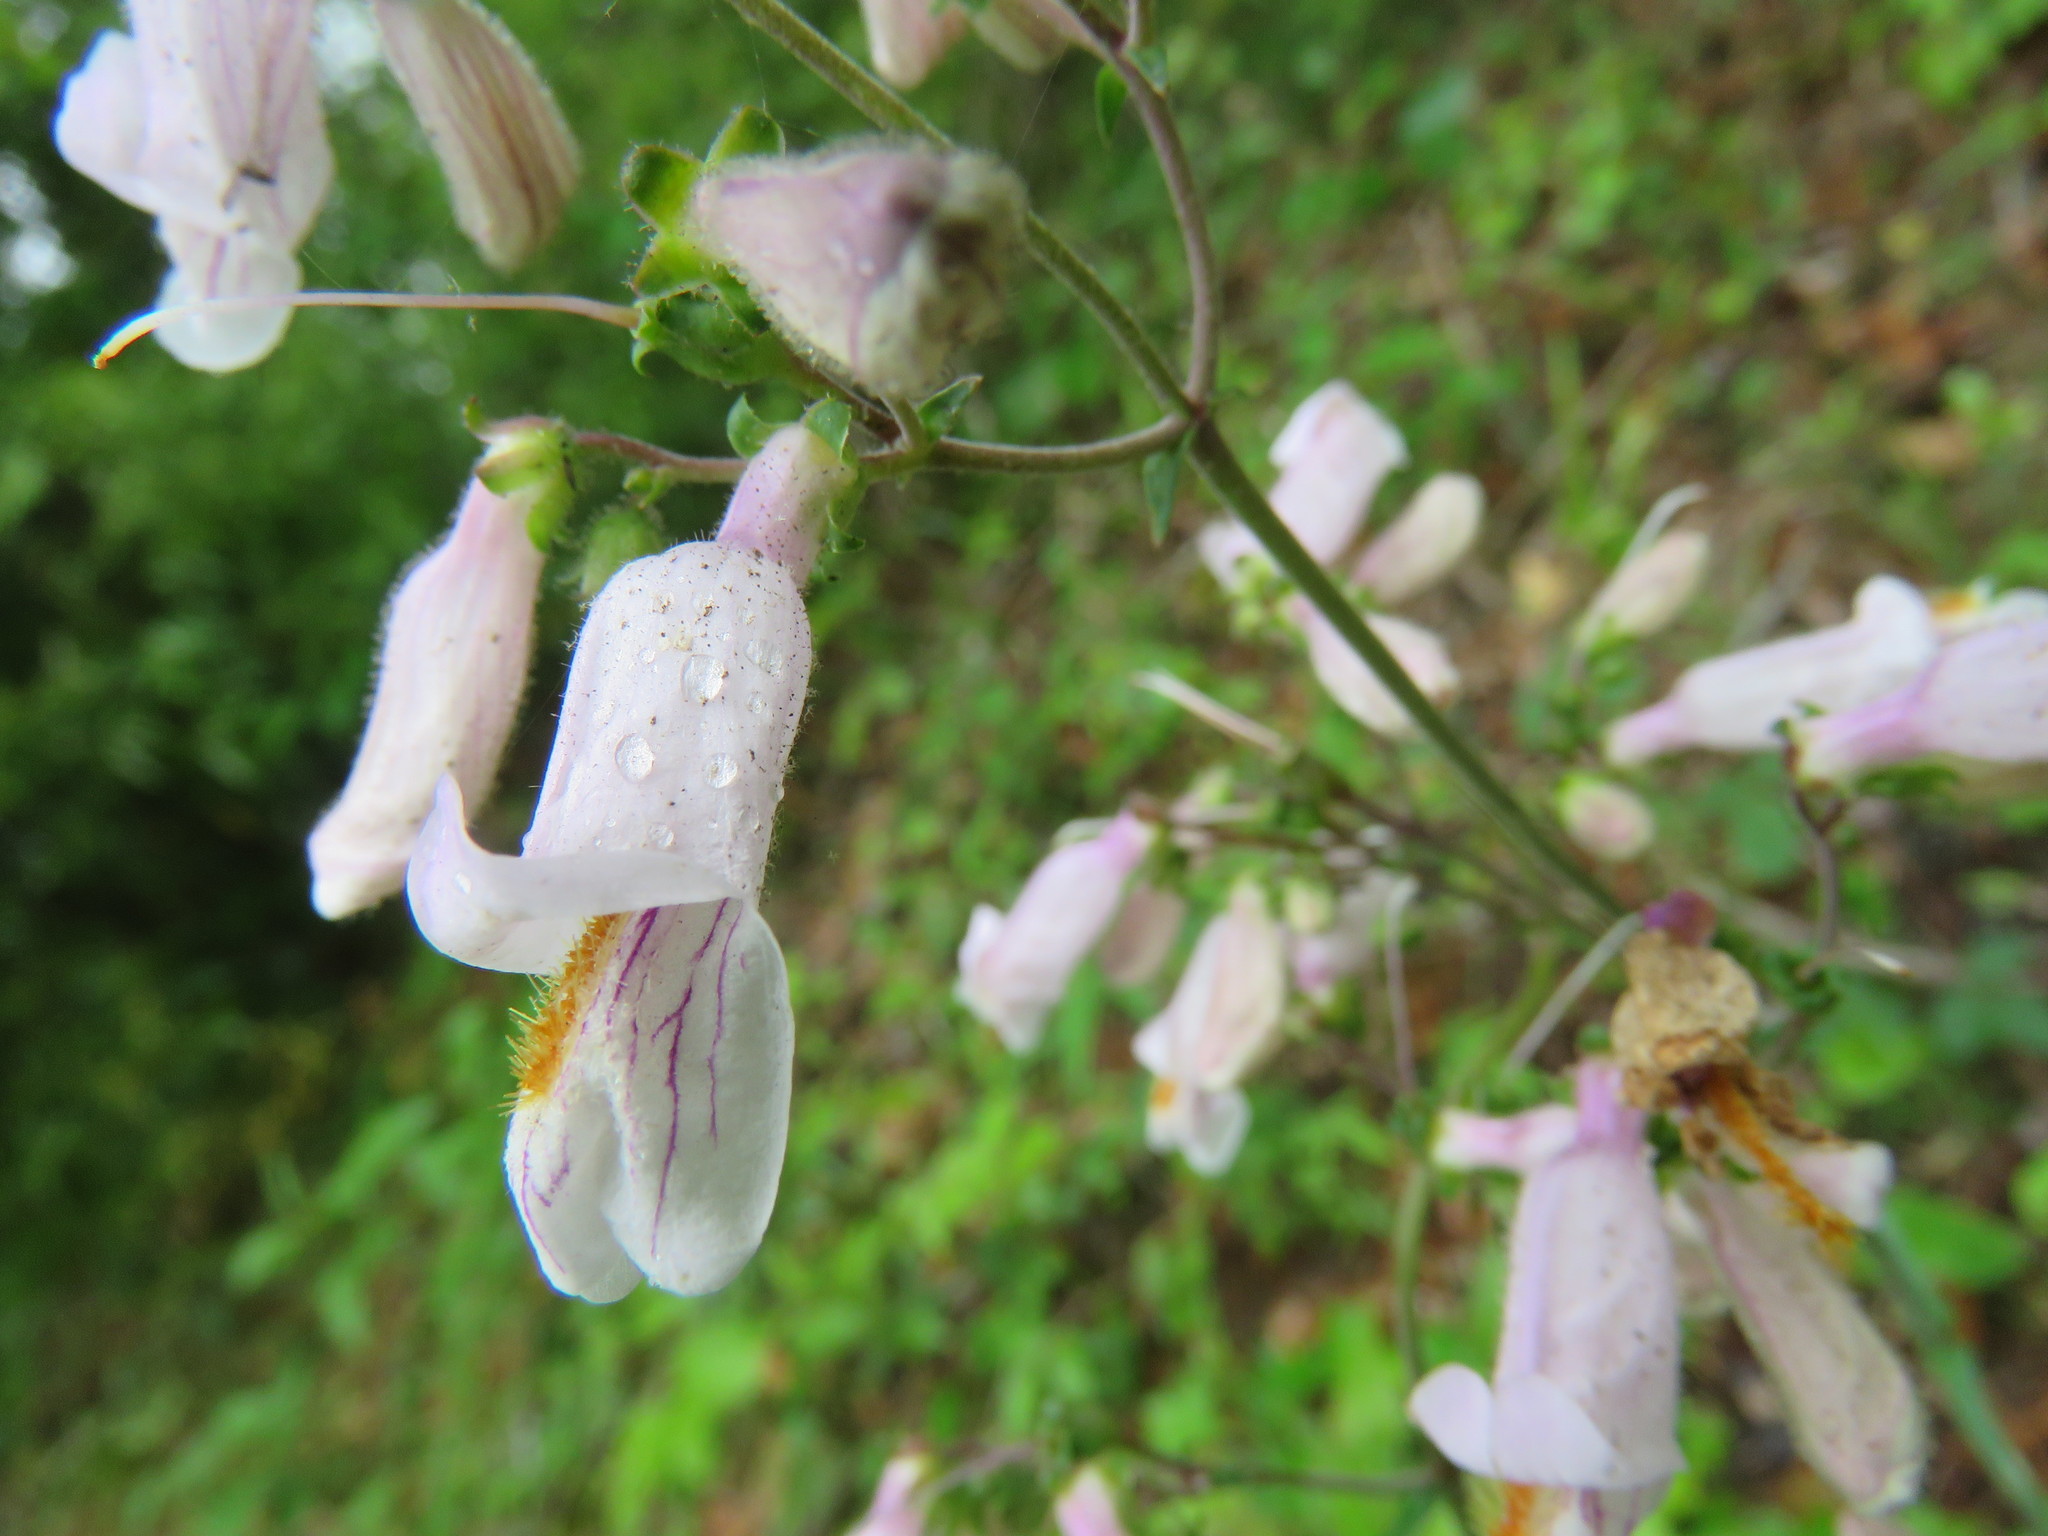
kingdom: Plantae
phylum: Tracheophyta
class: Magnoliopsida
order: Lamiales
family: Plantaginaceae
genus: Penstemon
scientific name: Penstemon laxiflorus
